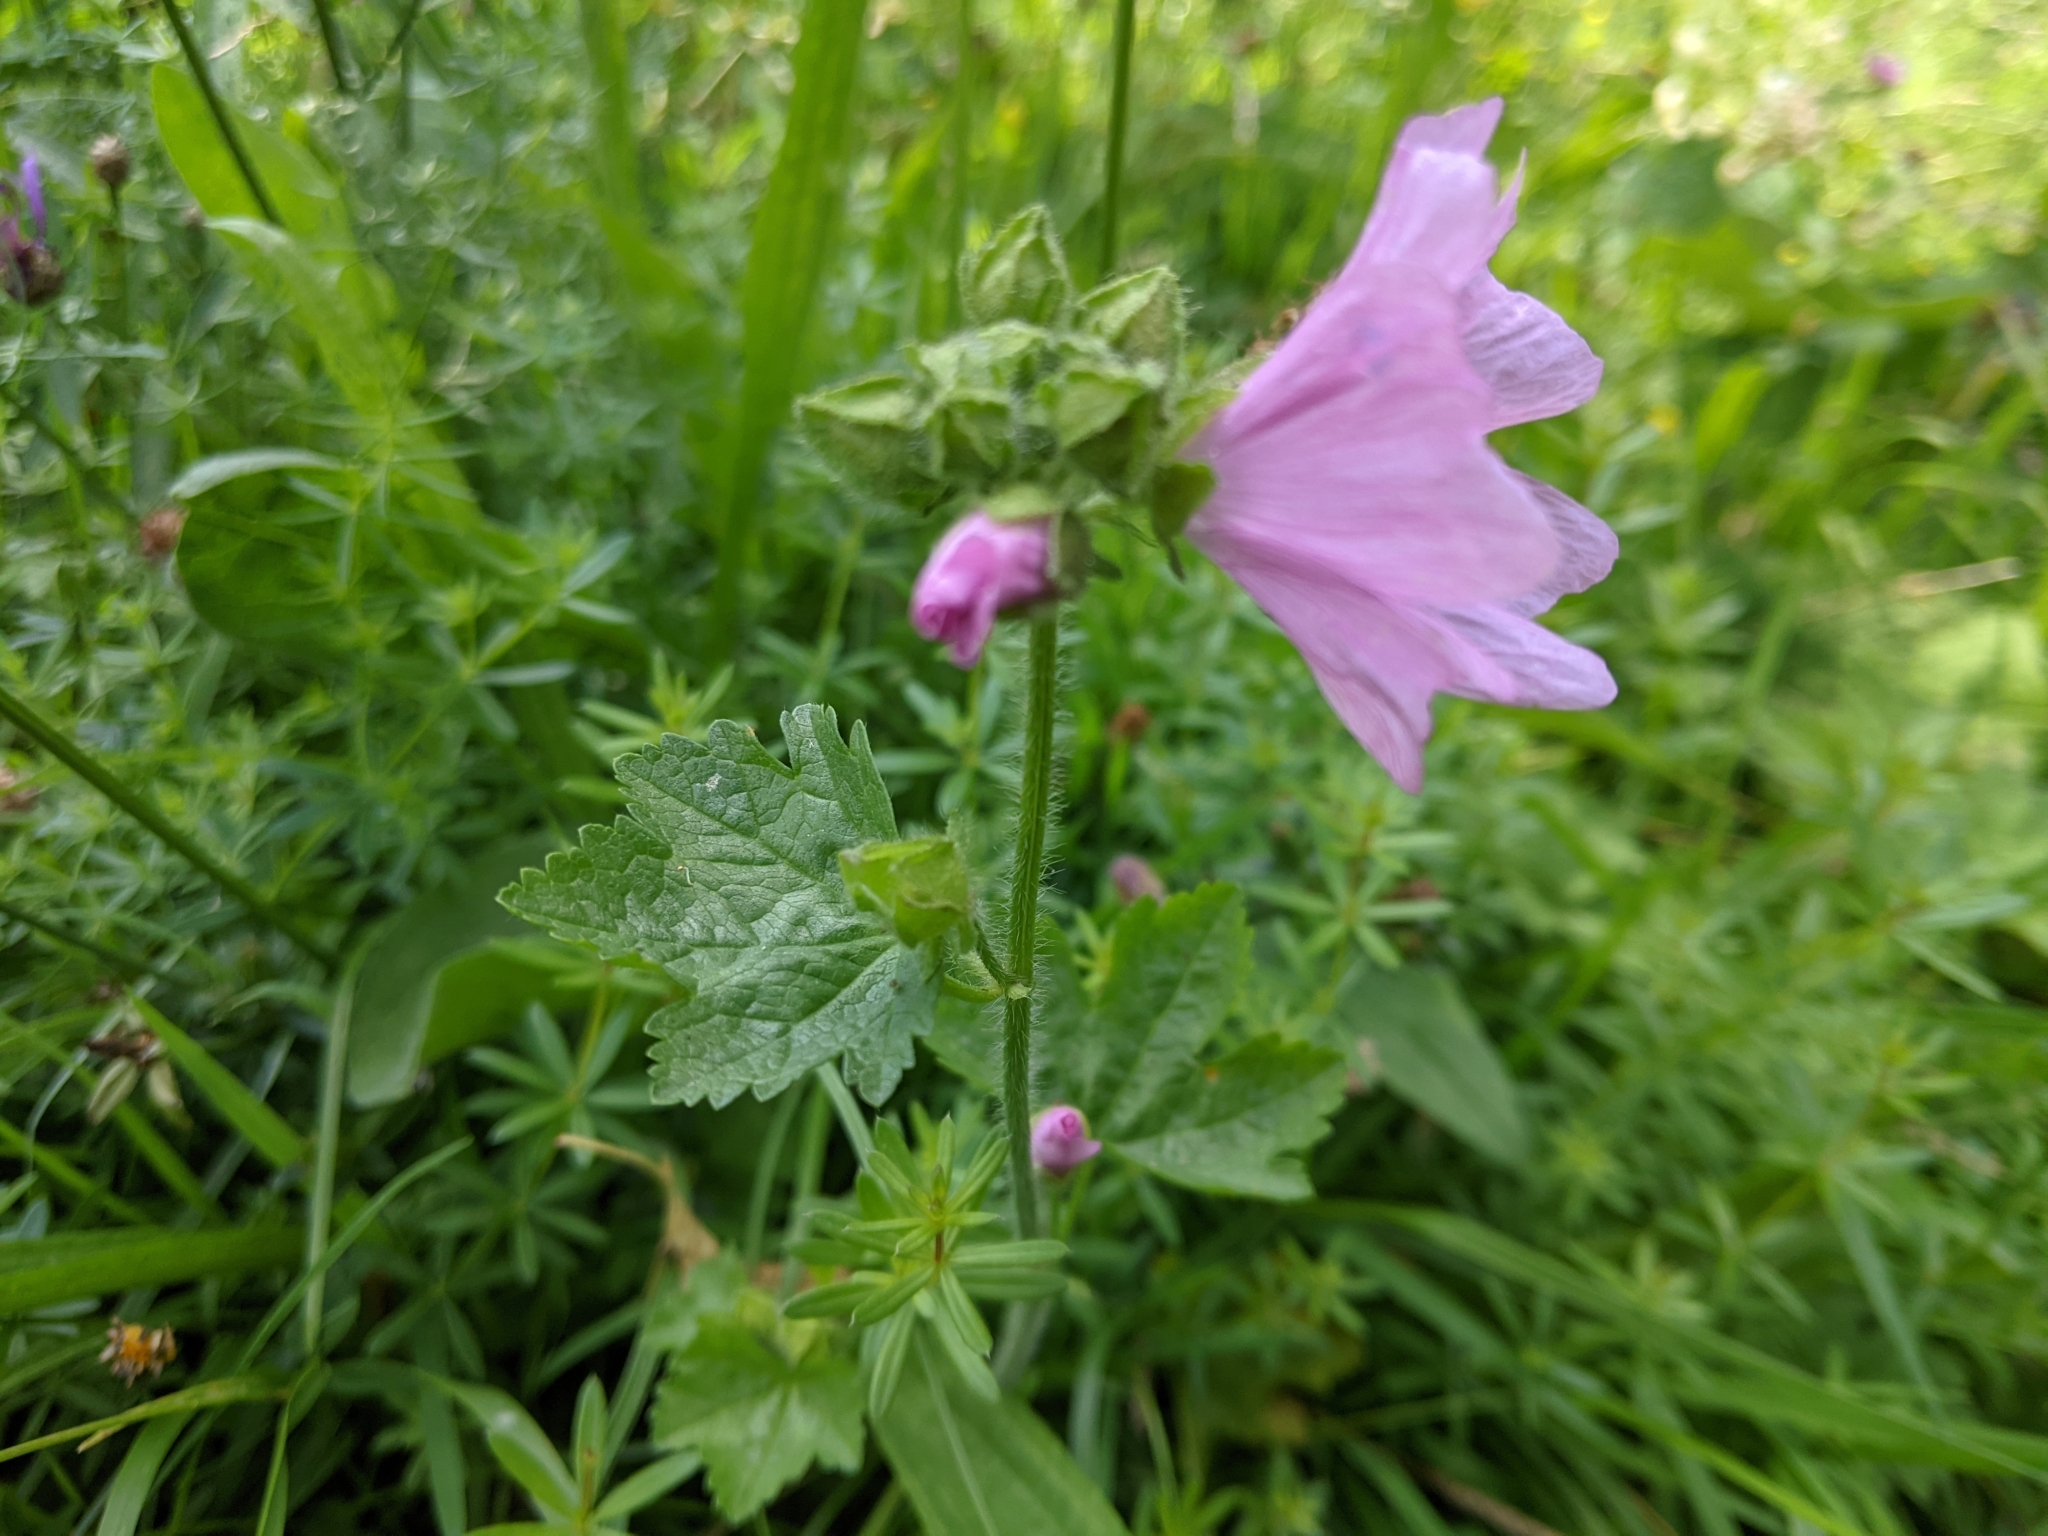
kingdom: Plantae
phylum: Tracheophyta
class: Magnoliopsida
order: Malvales
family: Malvaceae
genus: Malva
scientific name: Malva moschata
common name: Musk mallow
